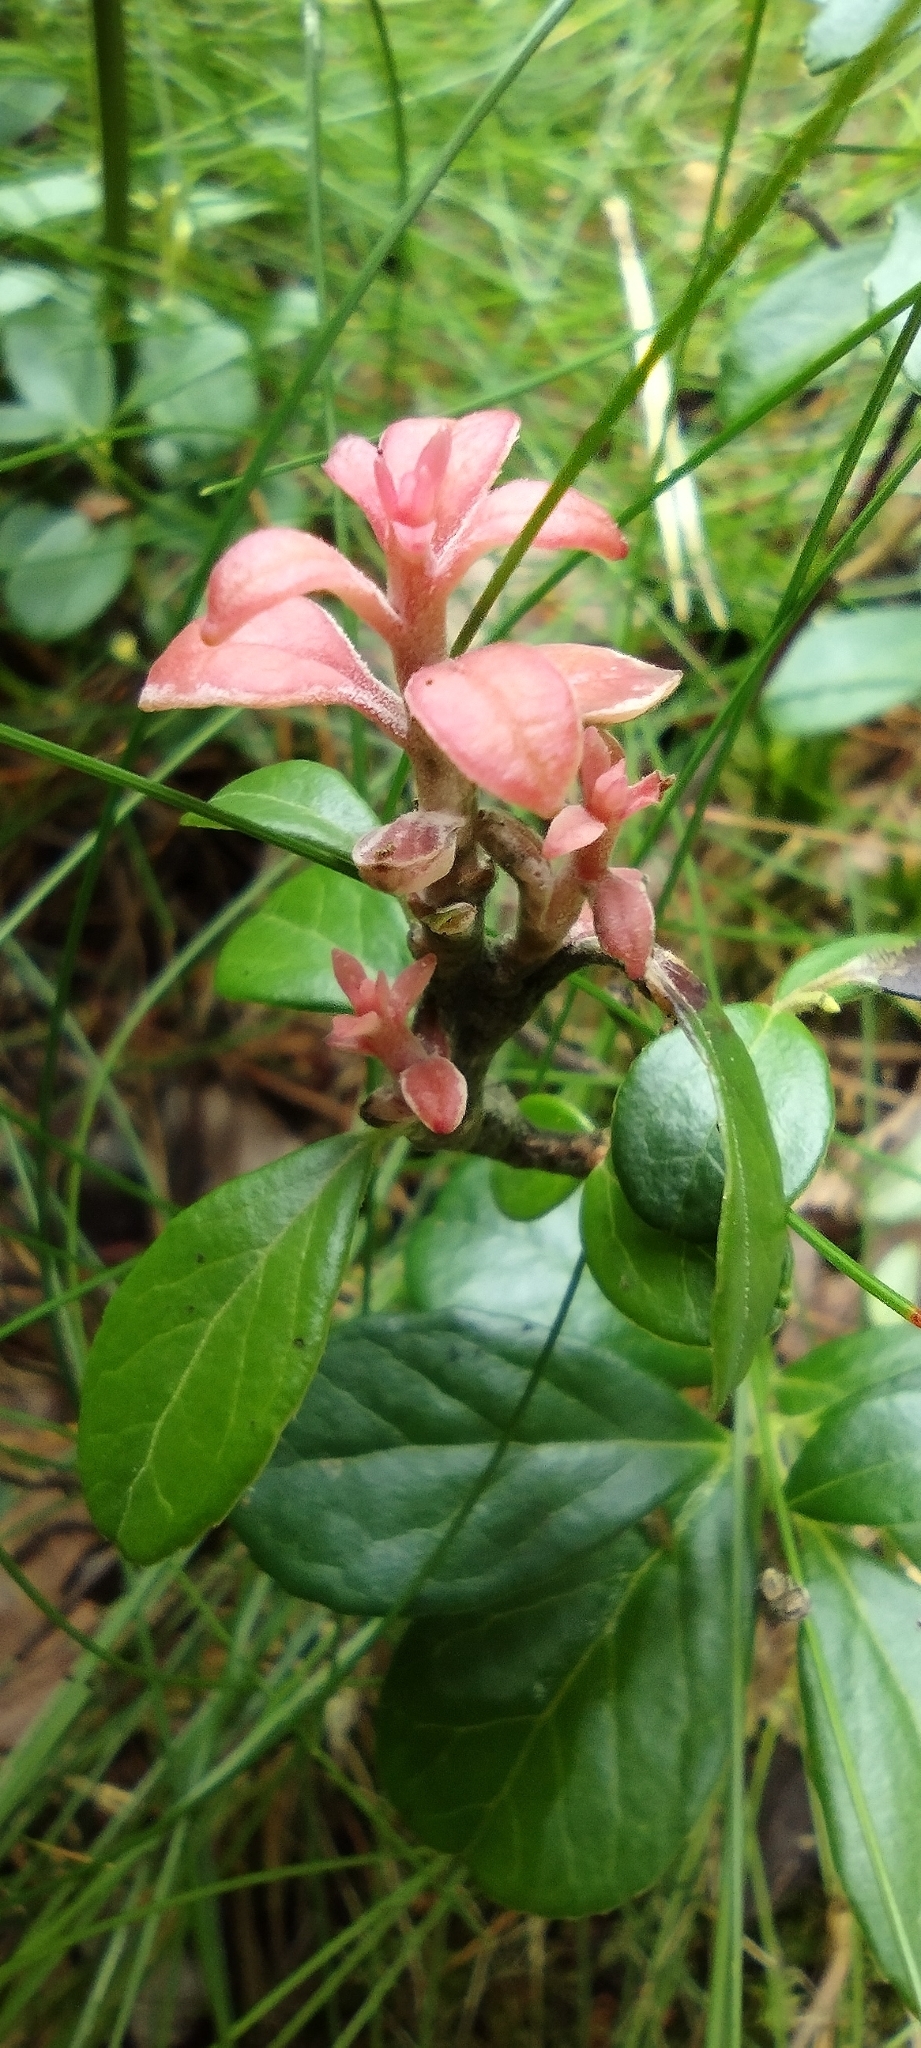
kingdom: Fungi
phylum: Basidiomycota
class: Exobasidiomycetes
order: Exobasidiales
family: Exobasidiaceae
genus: Exobasidium
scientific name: Exobasidium vaccinii
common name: Cowberry redleaf
